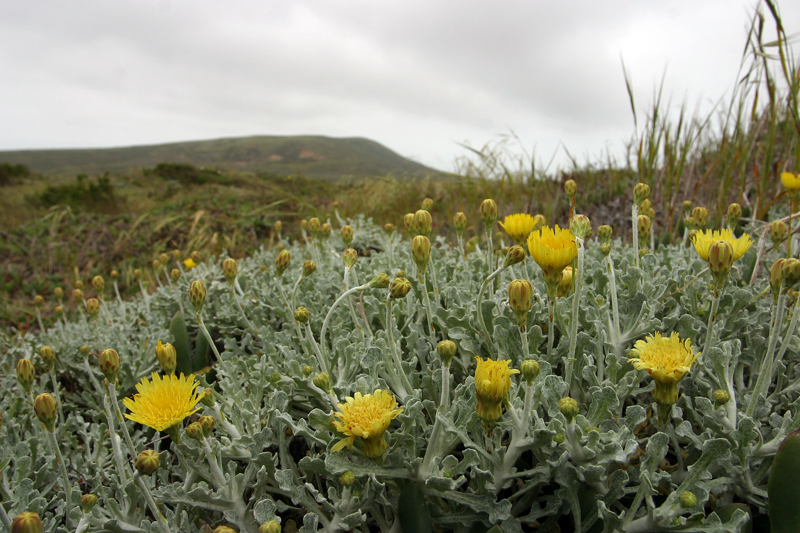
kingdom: Plantae
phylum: Tracheophyta
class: Magnoliopsida
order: Asterales
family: Asteraceae
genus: Malacothrix
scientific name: Malacothrix incana
